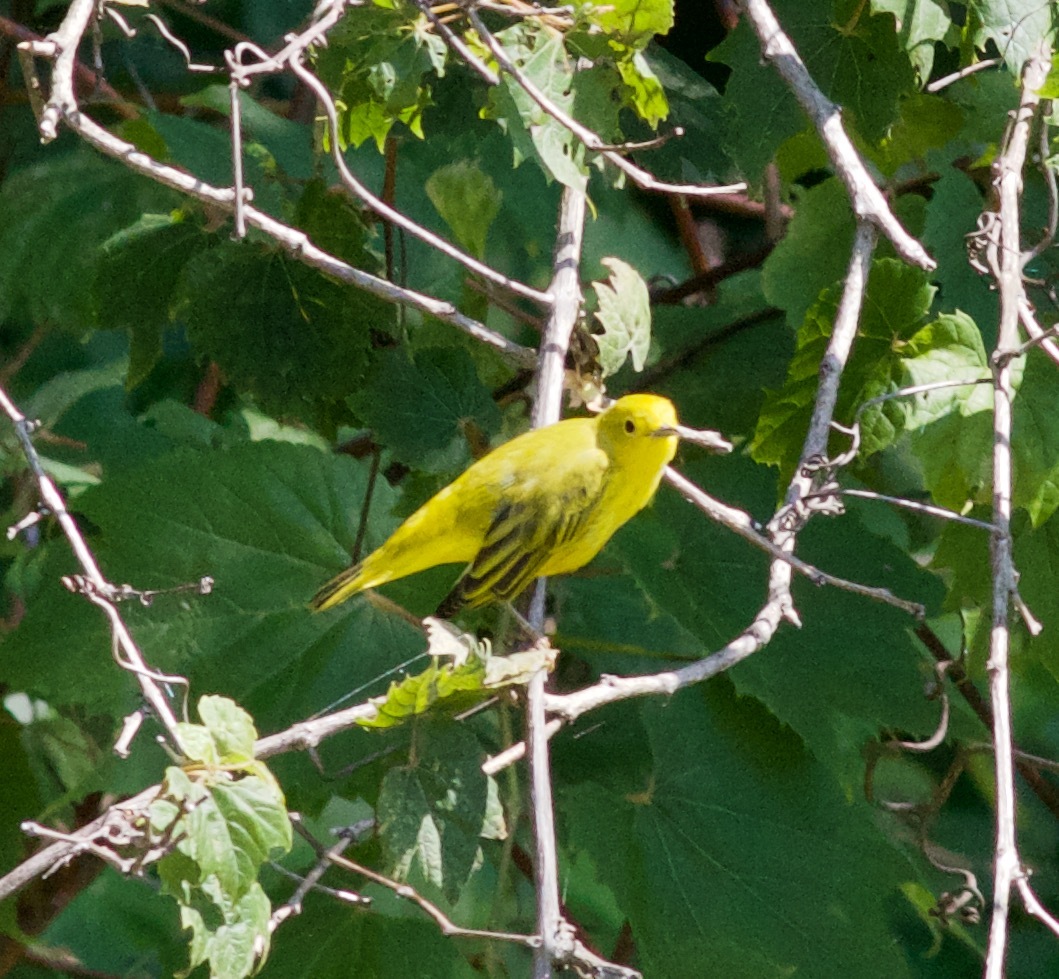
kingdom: Animalia
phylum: Chordata
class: Aves
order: Passeriformes
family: Parulidae
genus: Setophaga
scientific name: Setophaga petechia
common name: Yellow warbler
